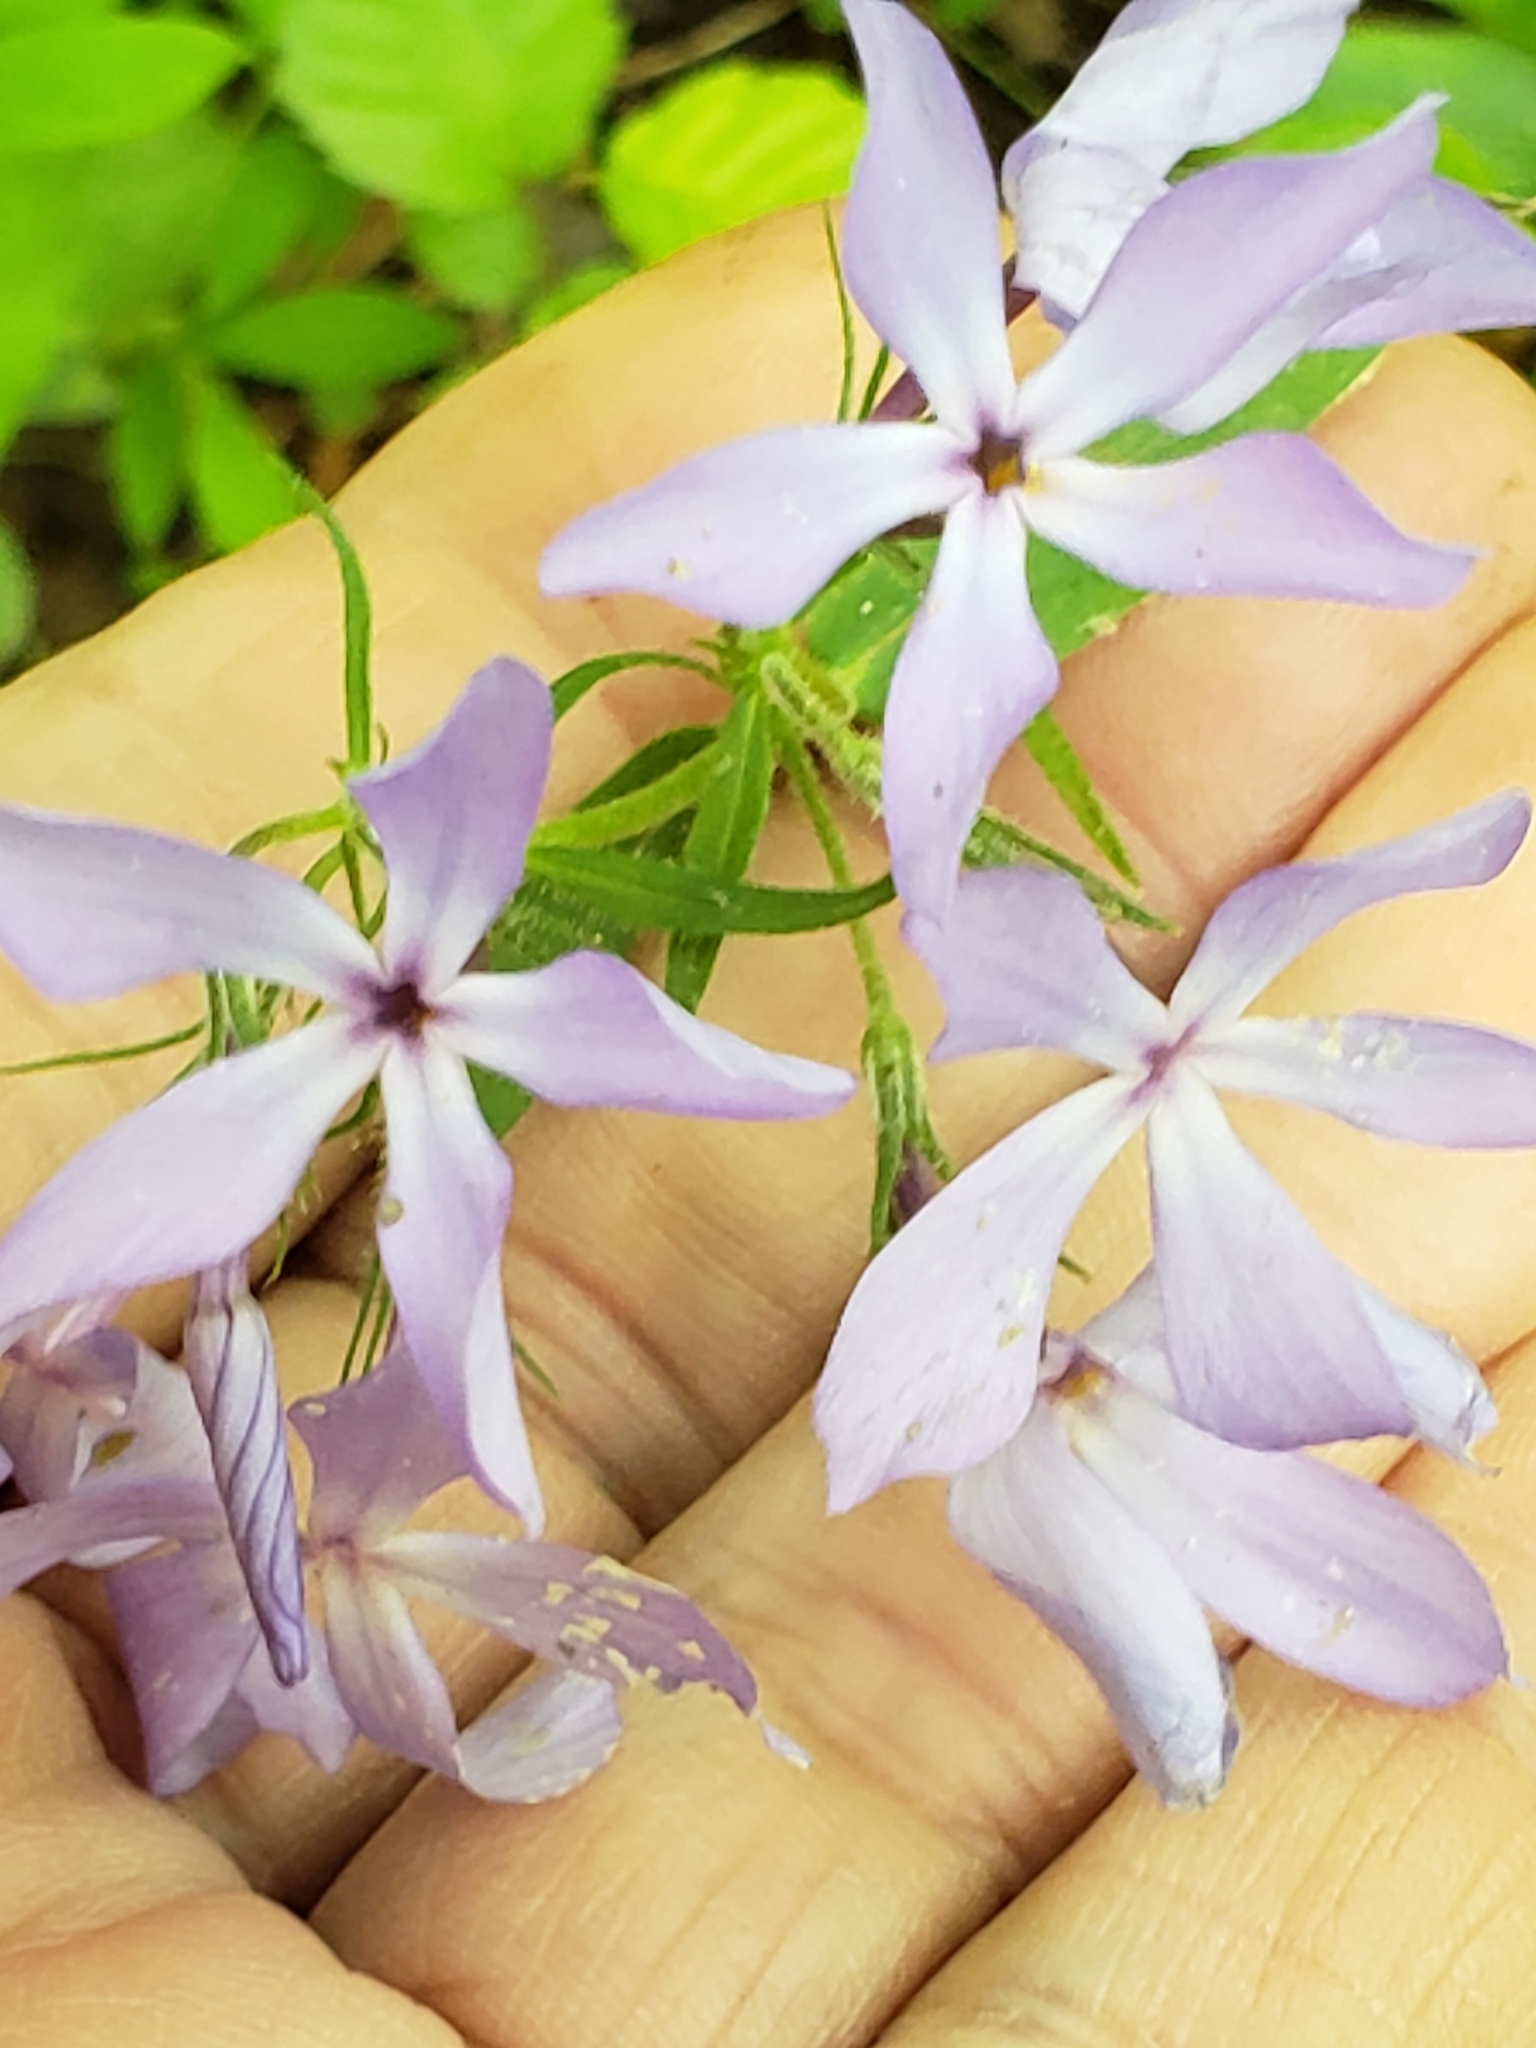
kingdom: Plantae
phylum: Tracheophyta
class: Magnoliopsida
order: Ericales
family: Polemoniaceae
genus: Phlox
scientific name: Phlox divaricata
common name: Blue phlox
